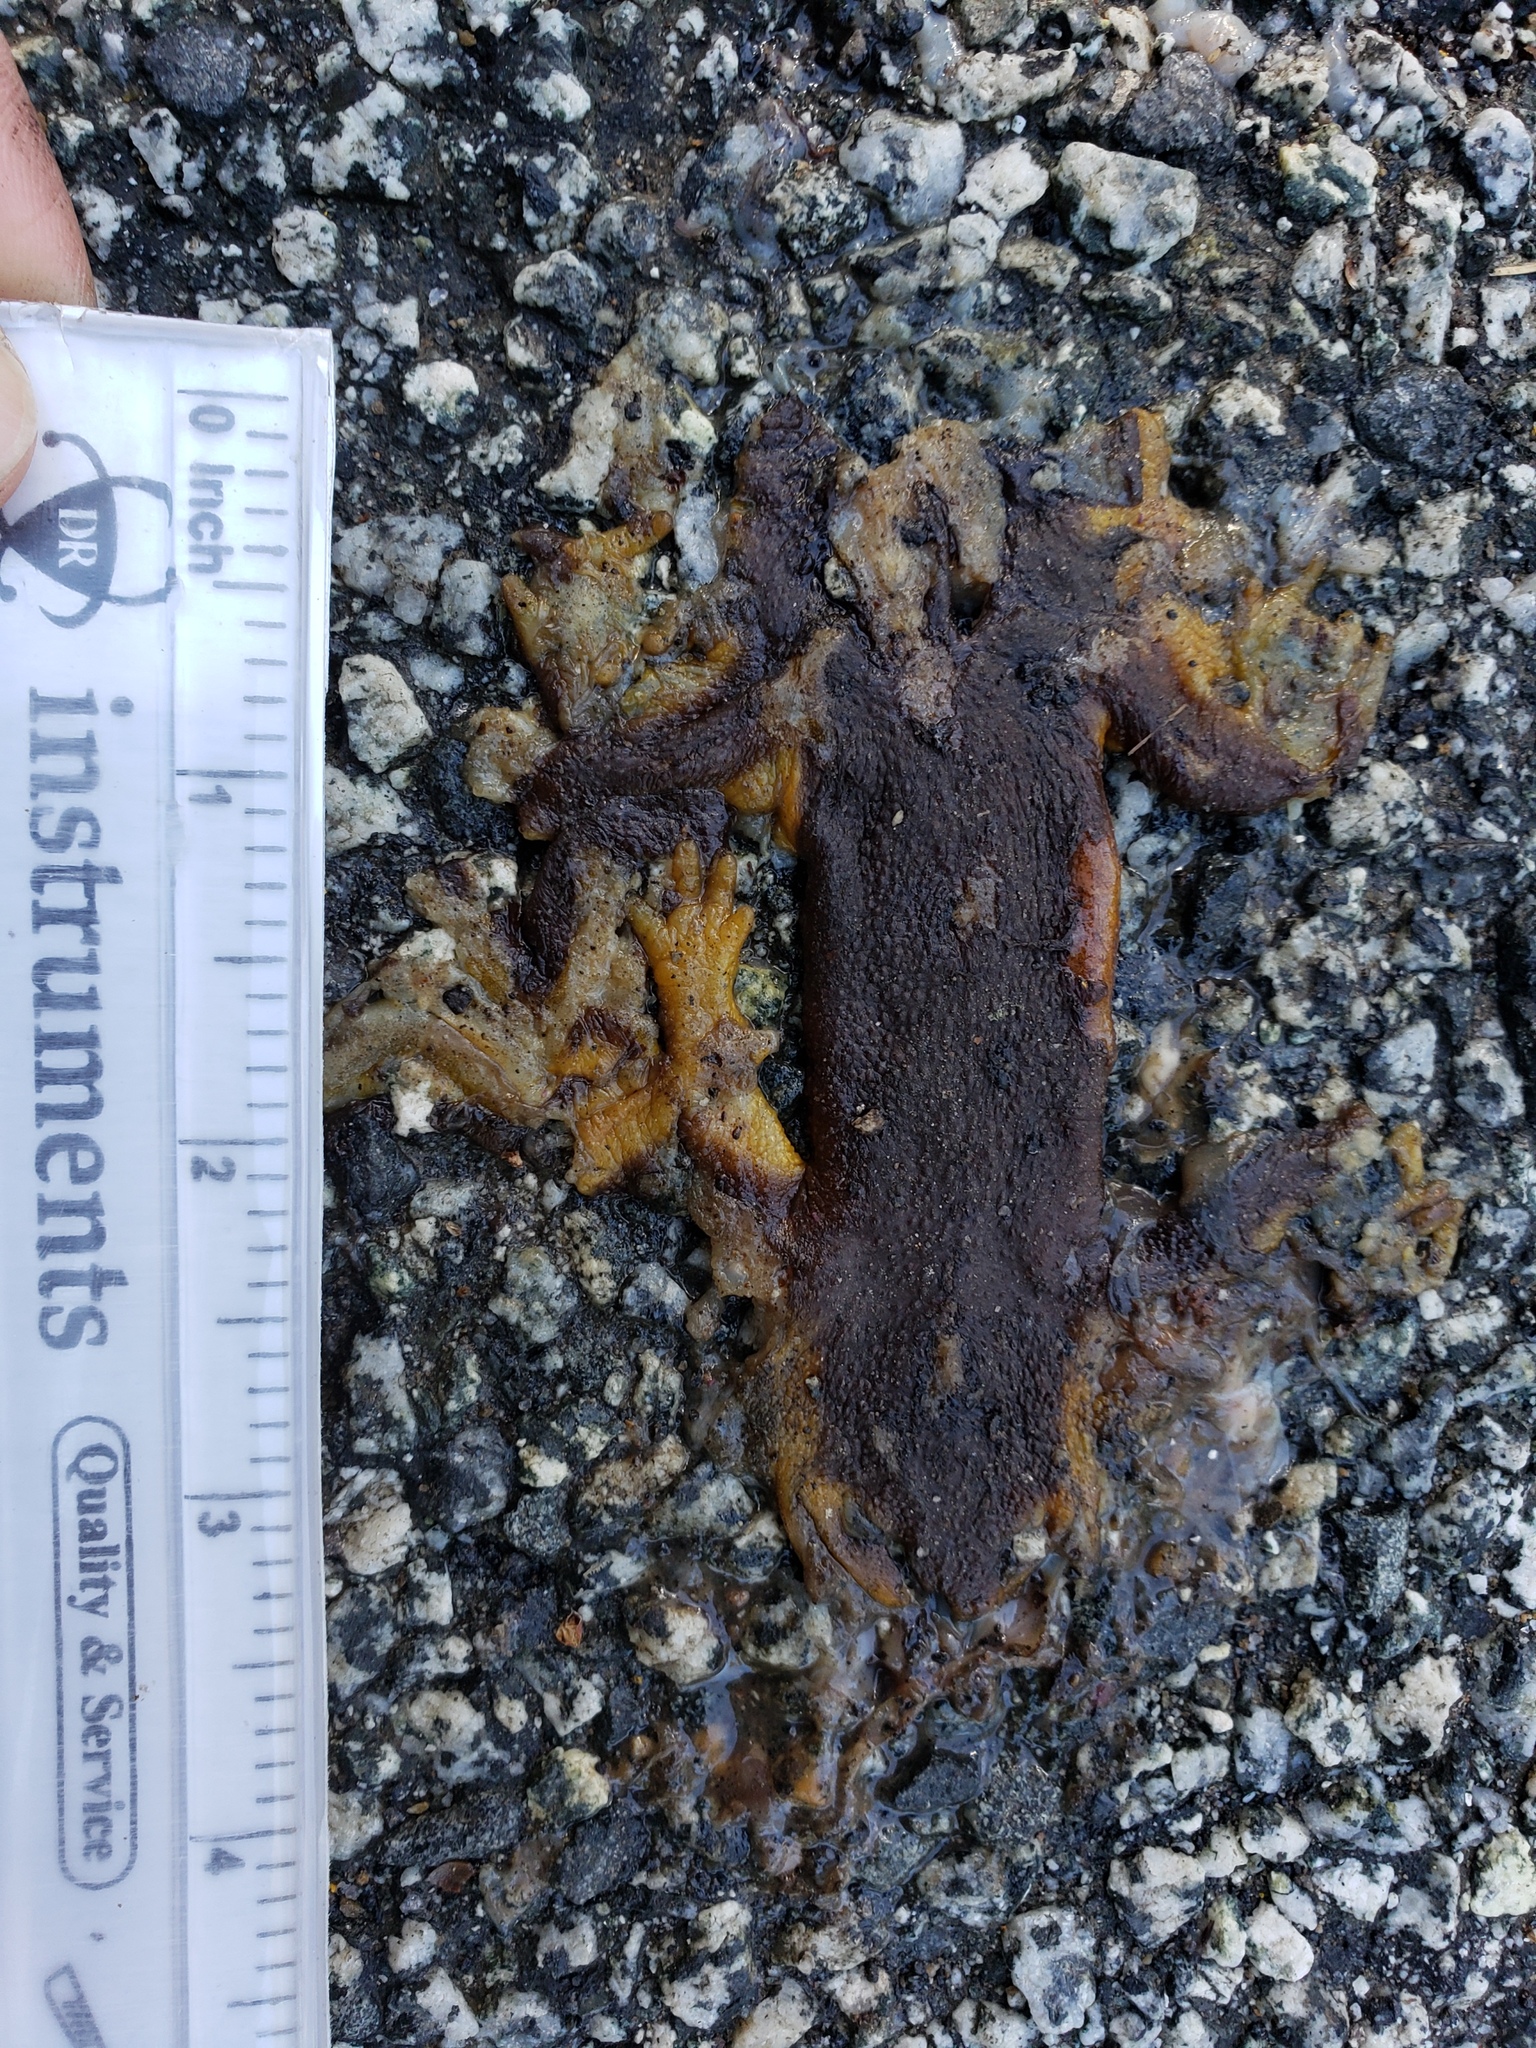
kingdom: Animalia
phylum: Chordata
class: Amphibia
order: Caudata
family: Salamandridae
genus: Taricha
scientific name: Taricha
